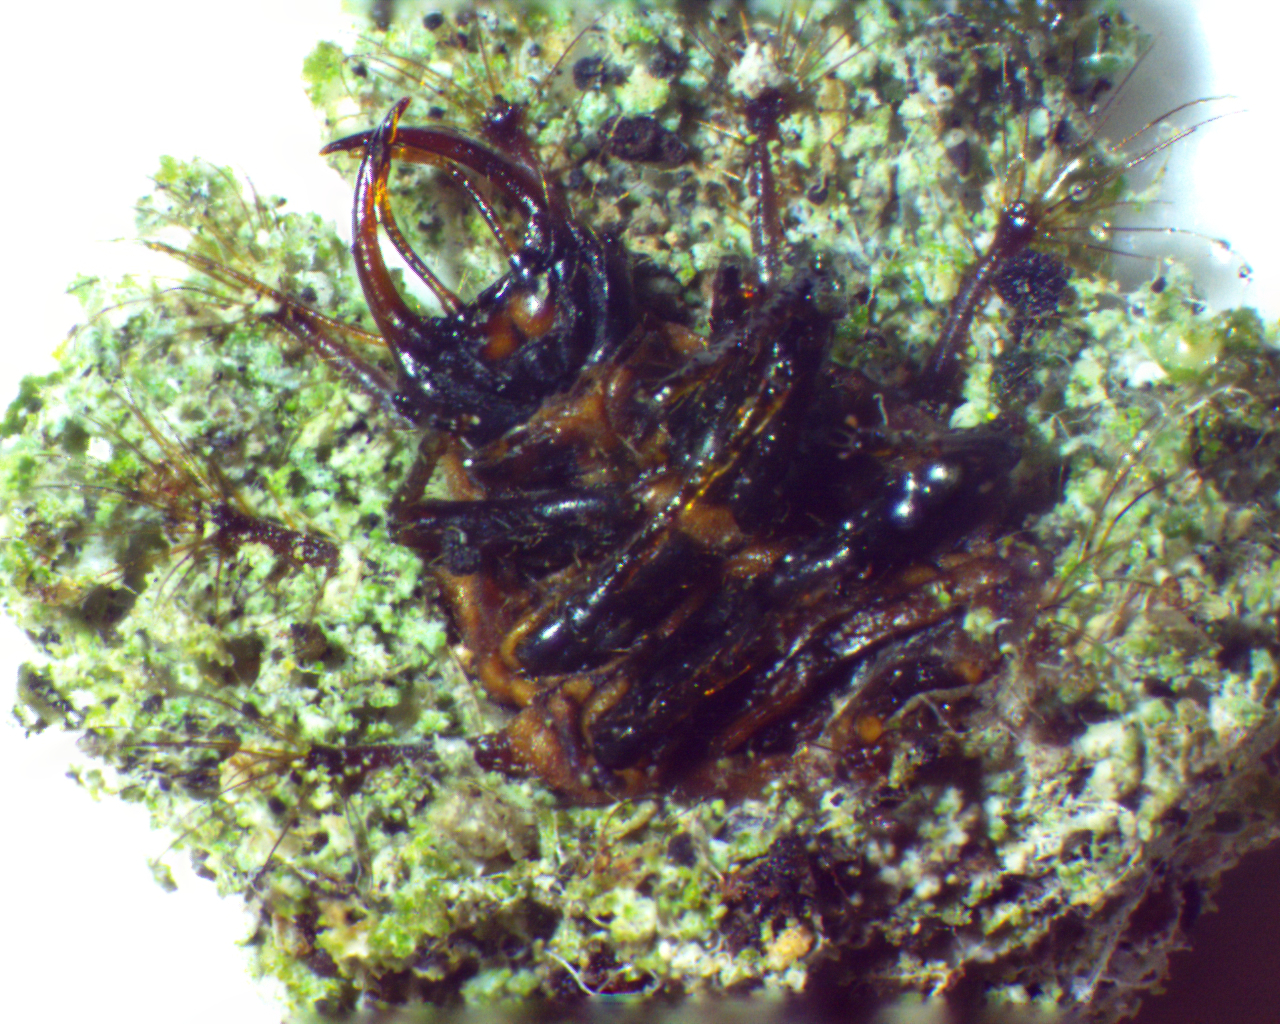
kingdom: Animalia
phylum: Arthropoda
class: Insecta
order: Neuroptera
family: Chrysopidae
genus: Leucochrysa
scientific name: Leucochrysa pavida
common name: Lichen-carrying green lacewing
